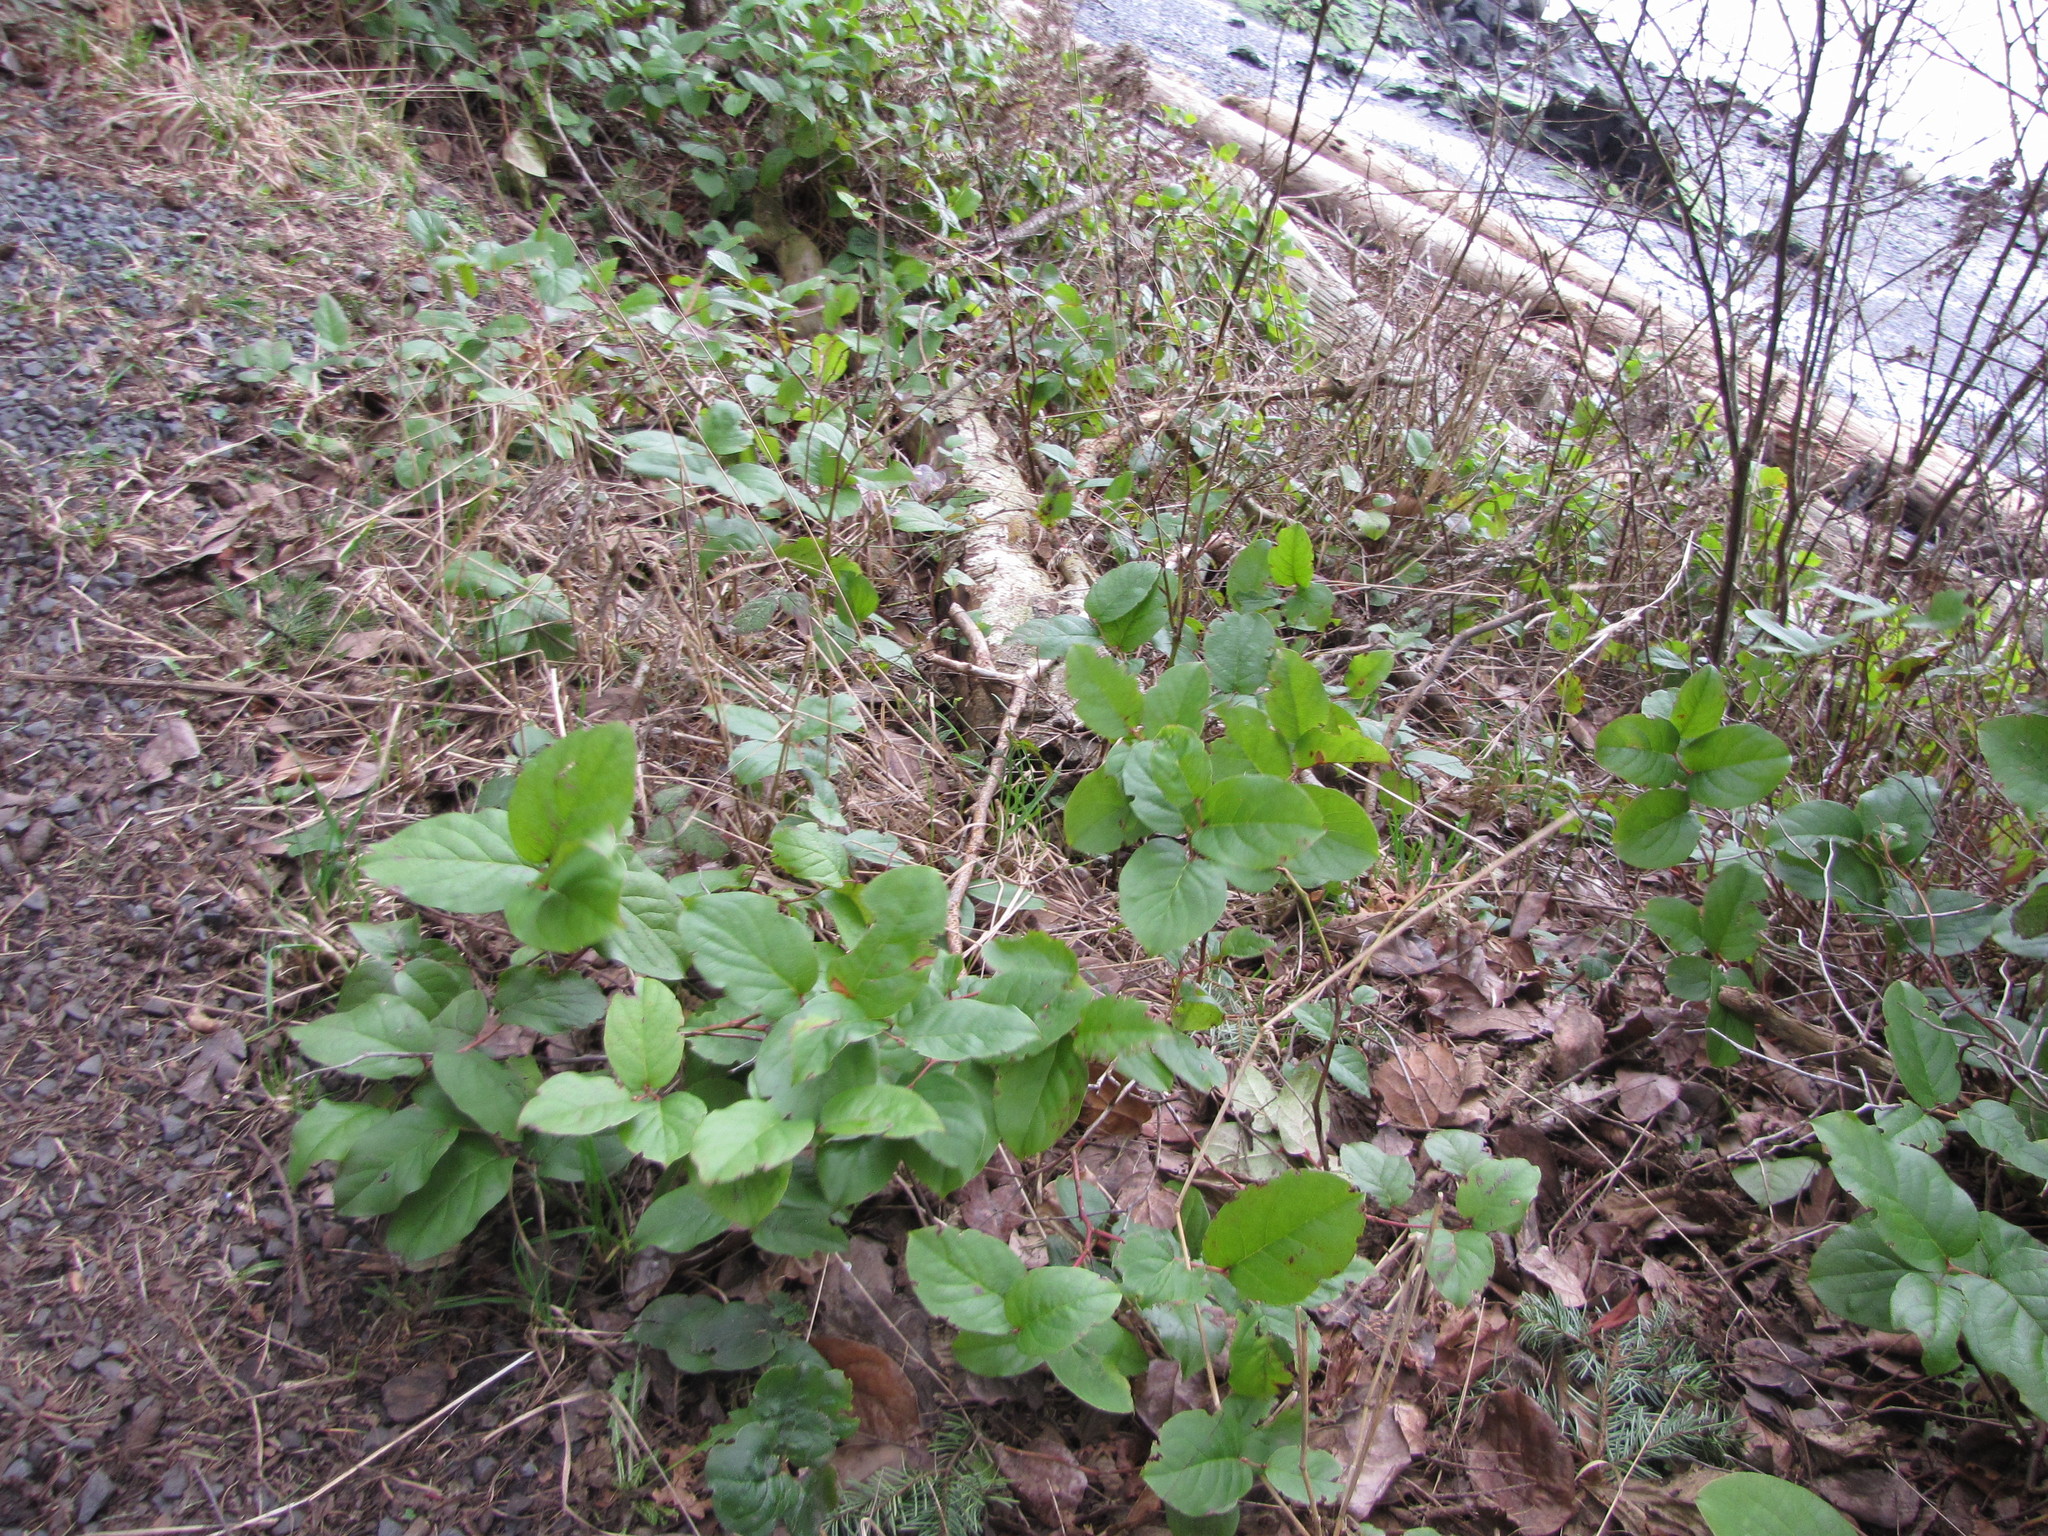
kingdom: Plantae
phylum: Tracheophyta
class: Magnoliopsida
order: Ericales
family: Ericaceae
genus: Gaultheria
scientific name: Gaultheria shallon
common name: Shallon
